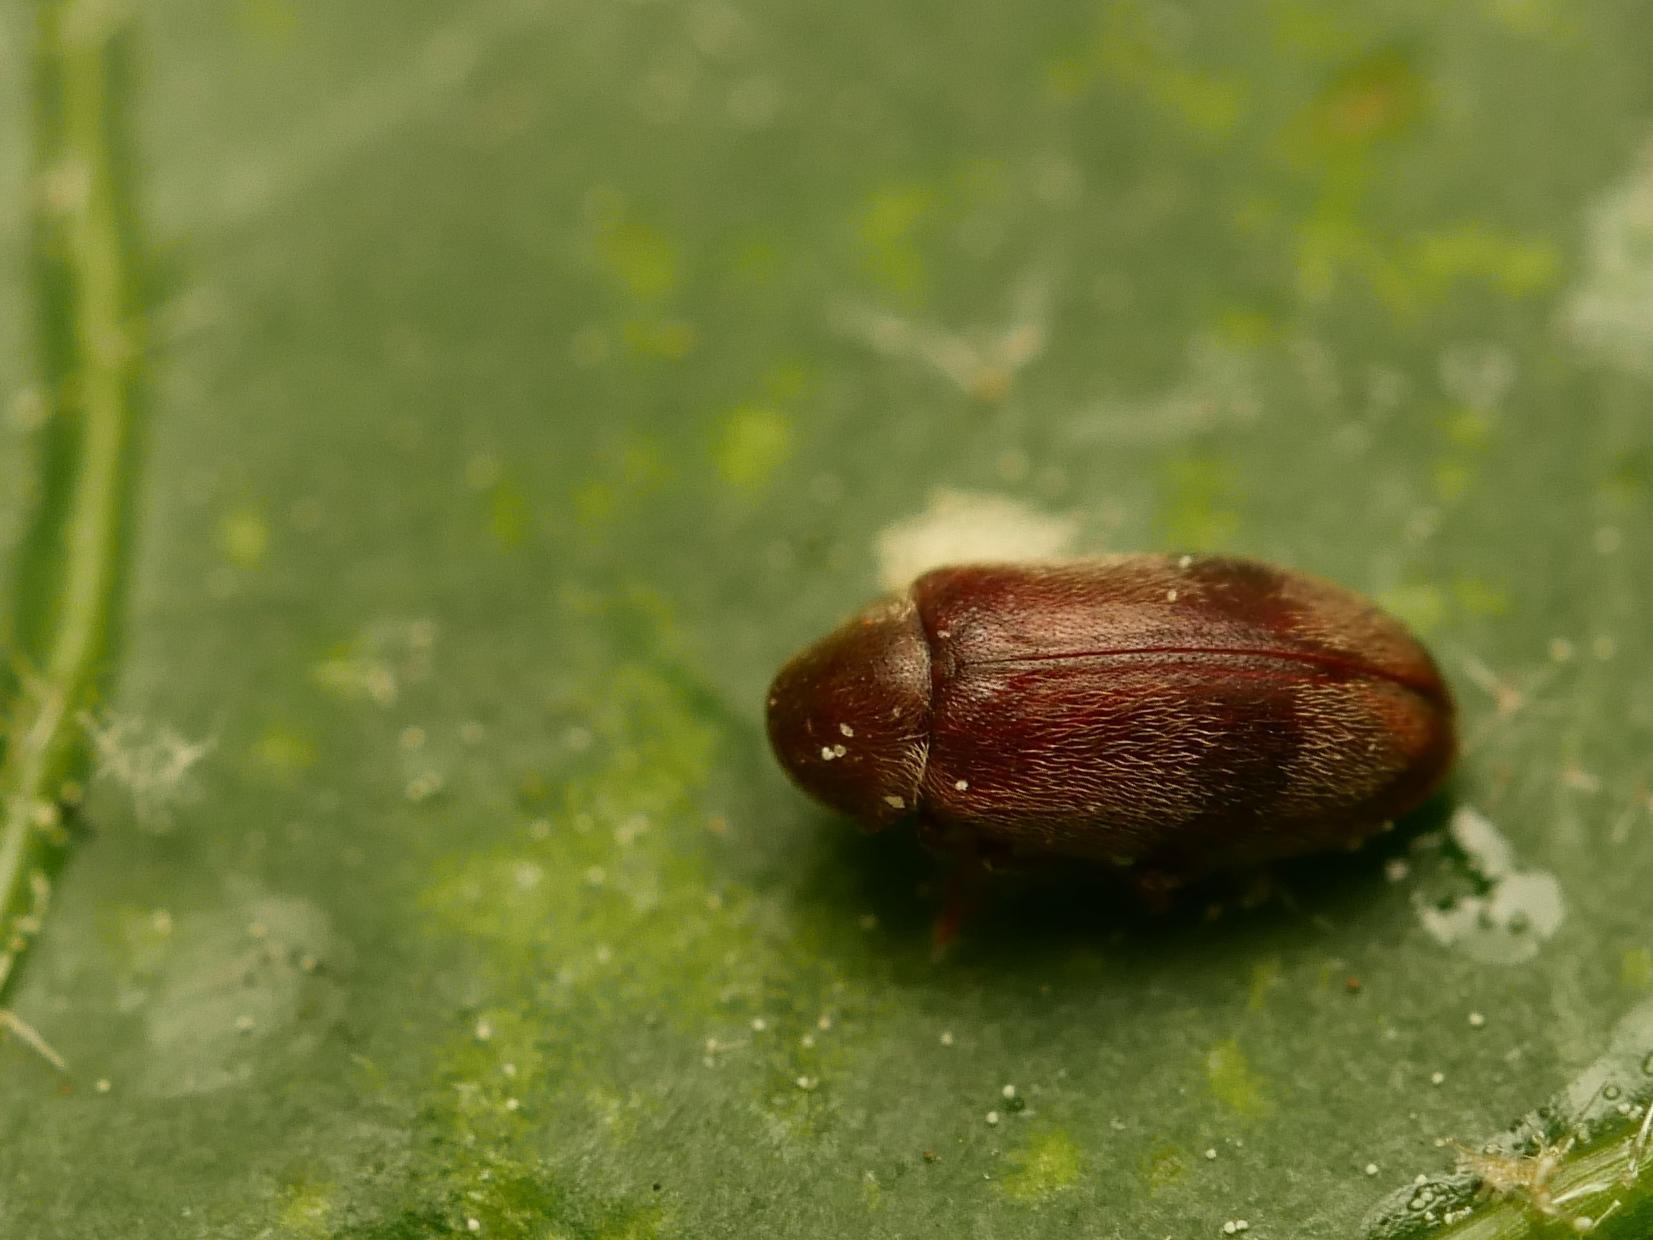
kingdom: Animalia
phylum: Arthropoda
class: Insecta
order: Coleoptera
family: Ptinidae
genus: Ochina
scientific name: Ochina ptinoides
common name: Ivy boring beetle
